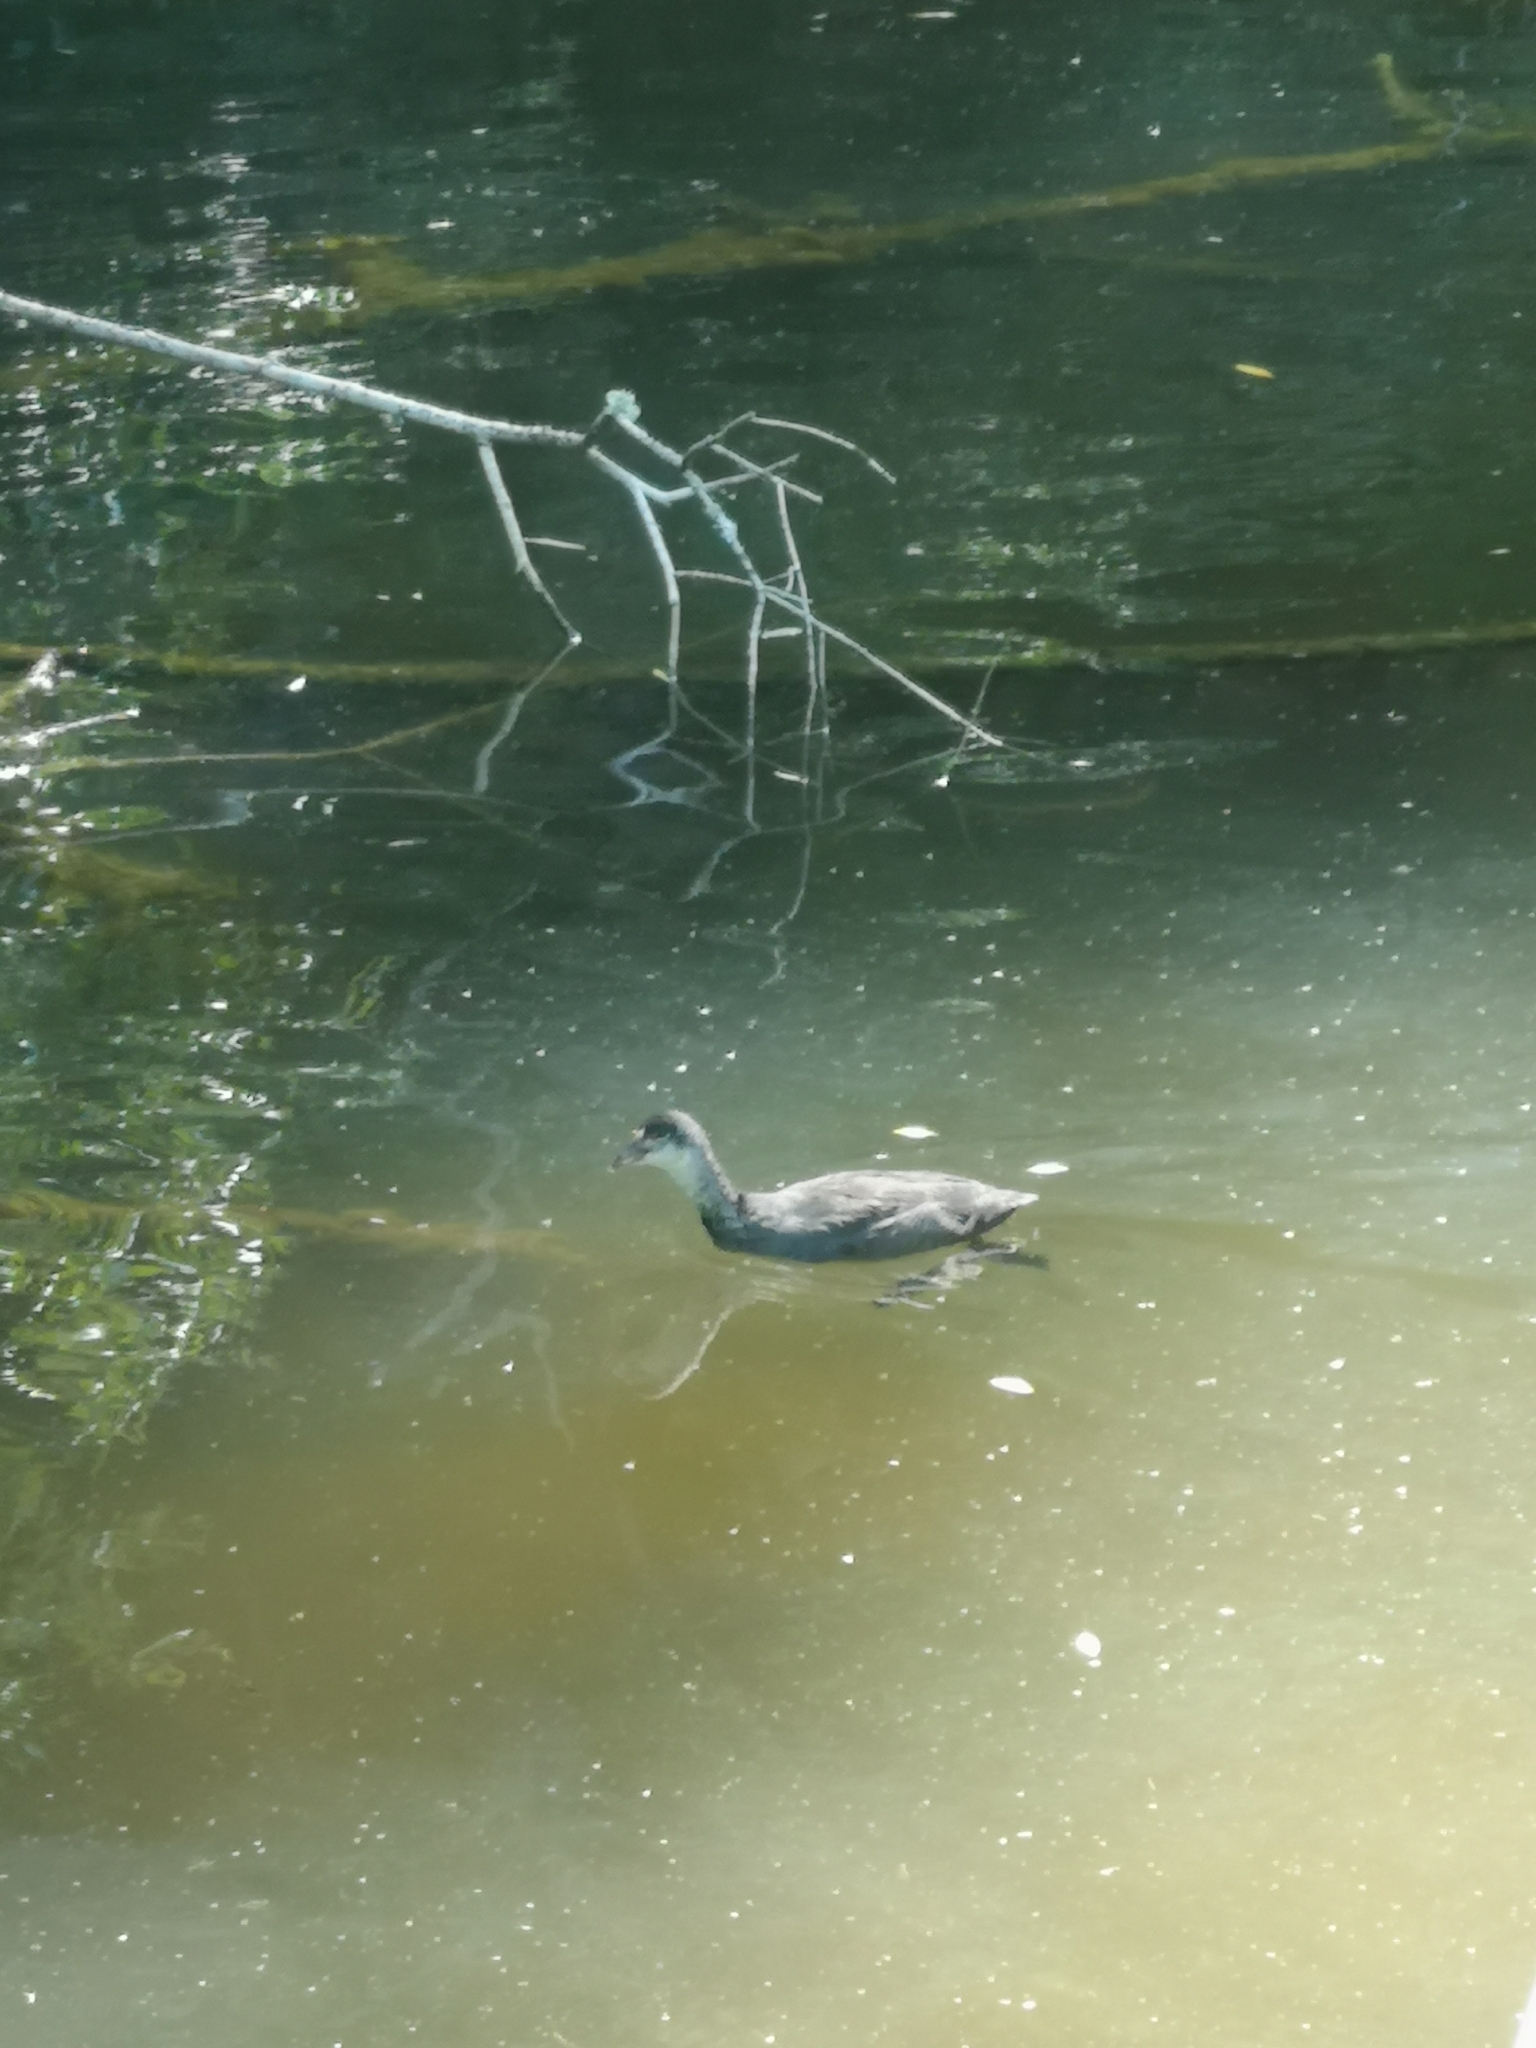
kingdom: Animalia
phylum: Chordata
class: Aves
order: Gruiformes
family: Rallidae
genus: Fulica
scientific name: Fulica atra
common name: Eurasian coot
